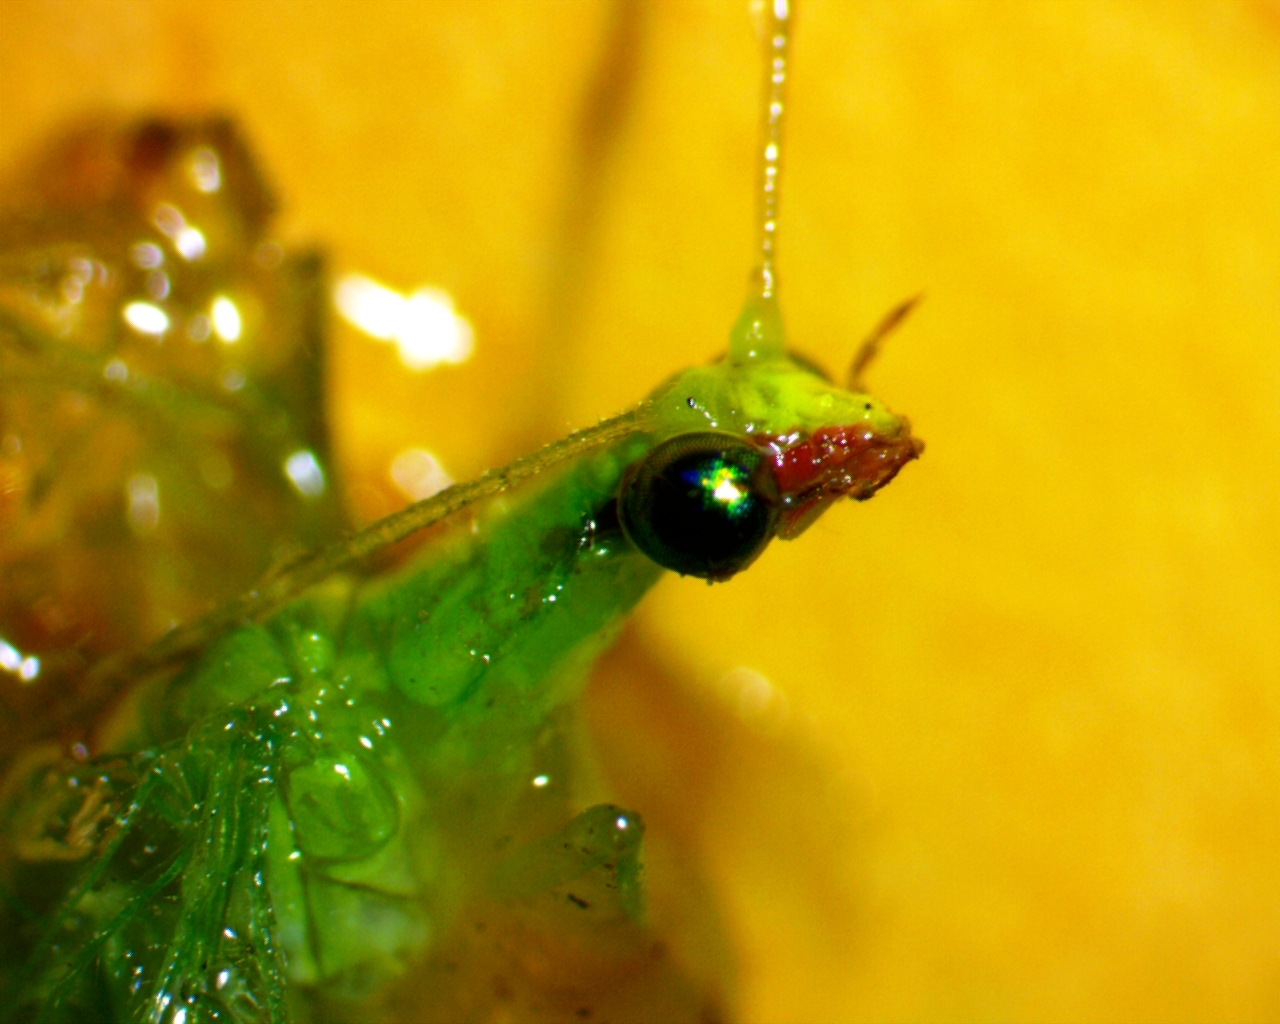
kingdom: Animalia
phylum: Arthropoda
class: Insecta
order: Neuroptera
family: Chrysopidae
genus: Chrysoperla
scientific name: Chrysoperla rufilabris
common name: Red-lipped green lacewing
